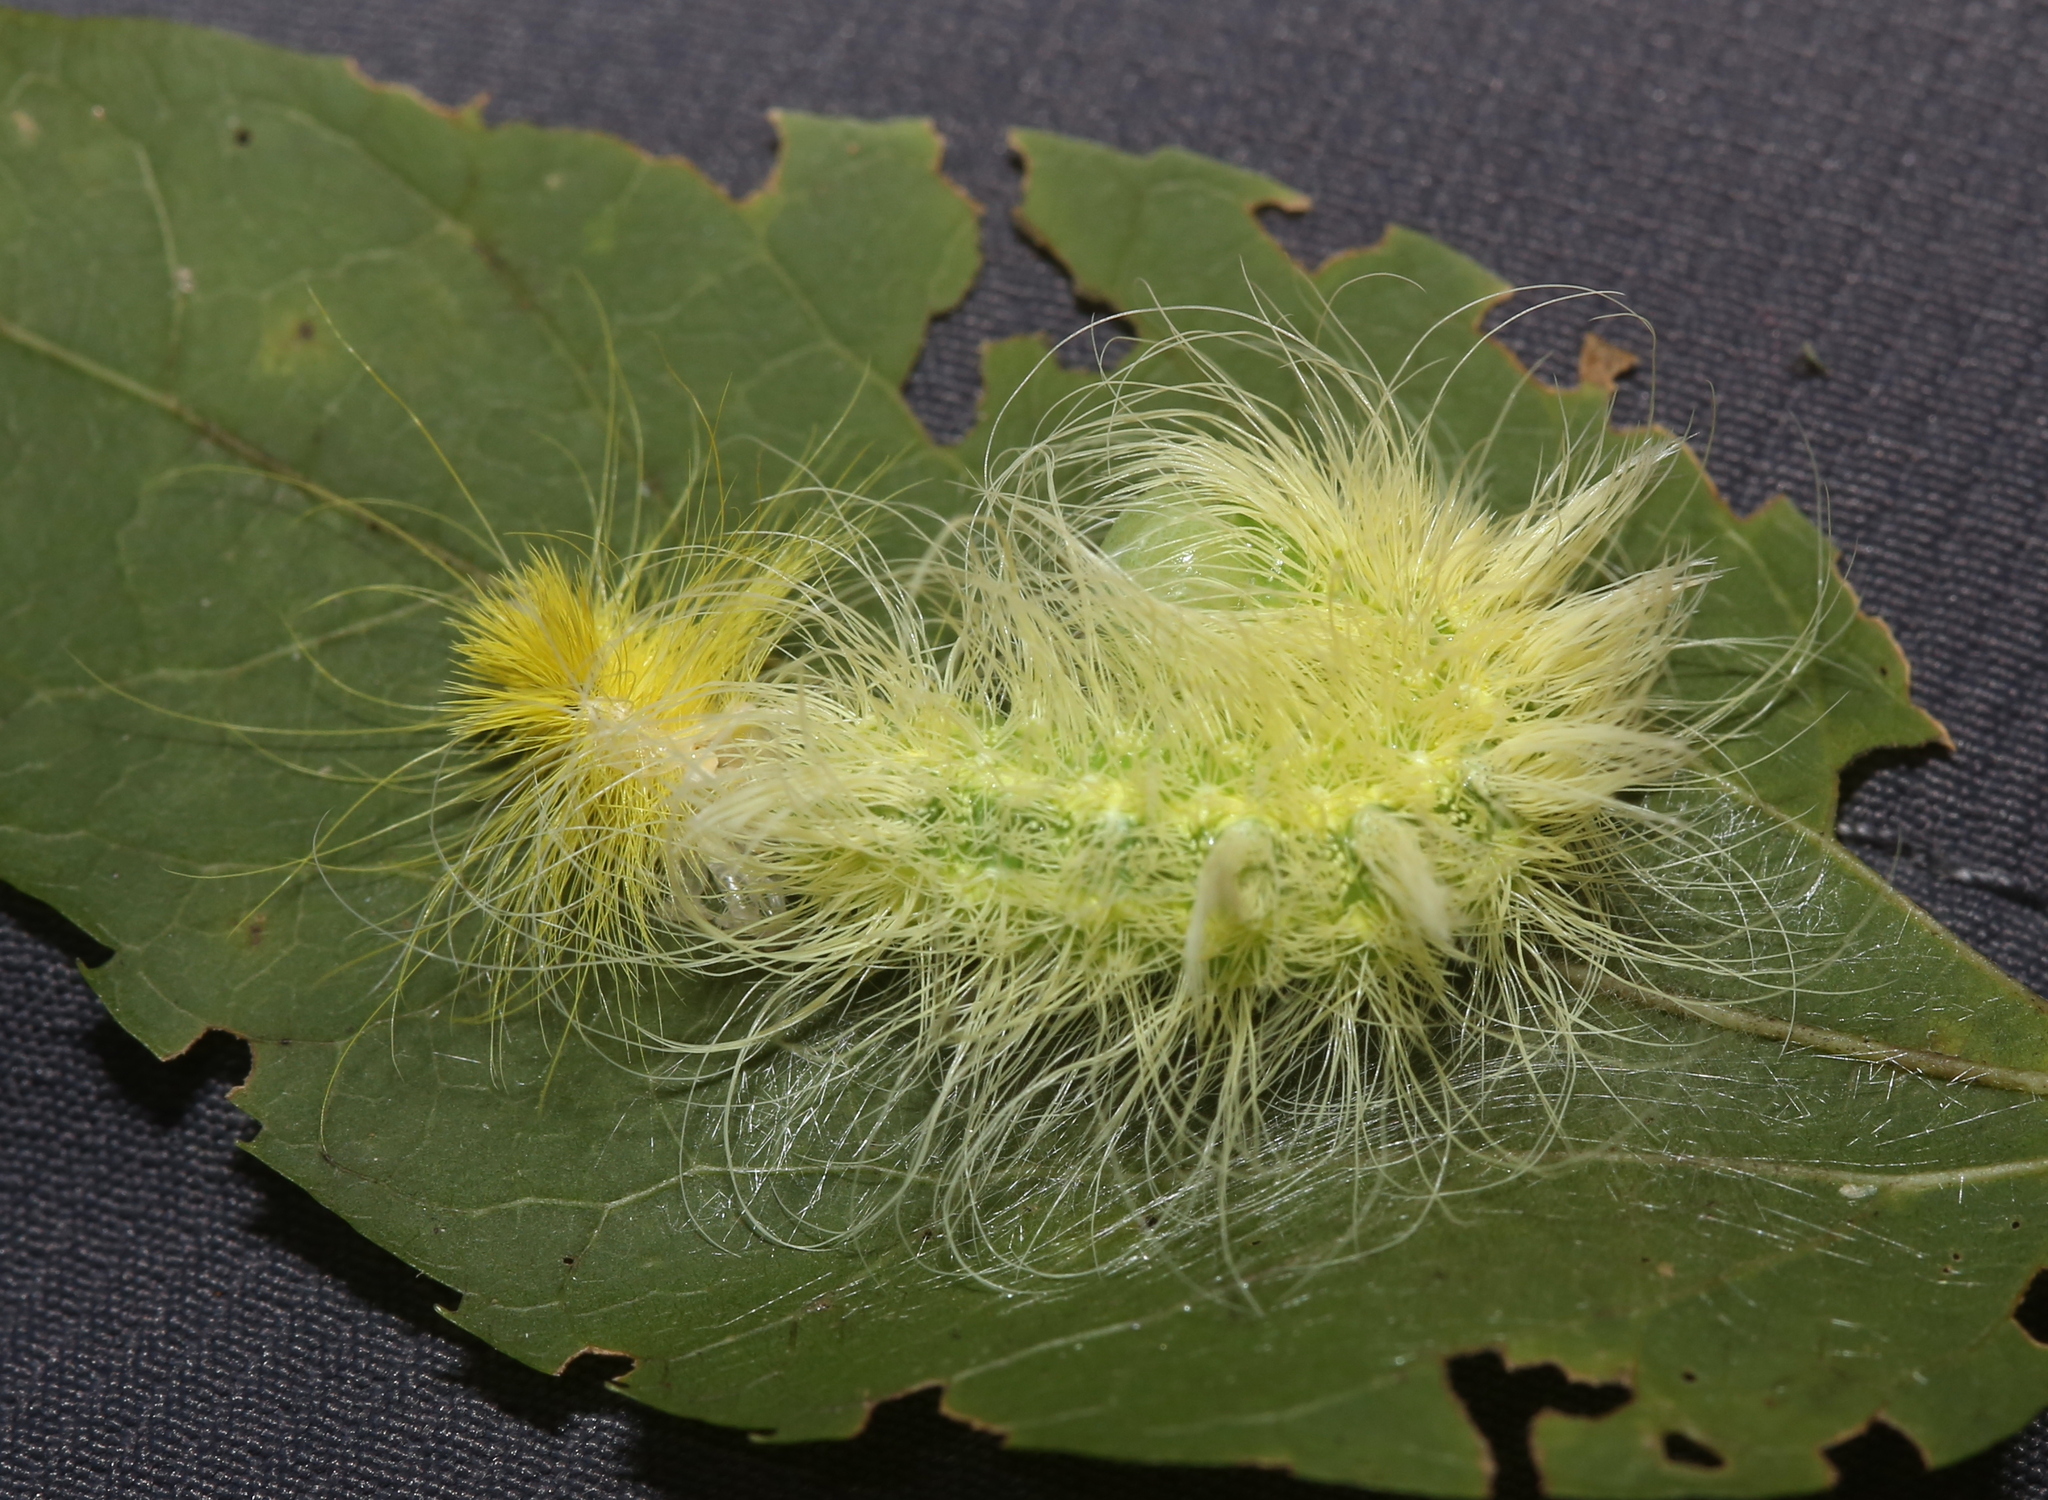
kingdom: Animalia
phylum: Arthropoda
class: Insecta
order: Lepidoptera
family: Noctuidae
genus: Acronicta
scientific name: Acronicta rubricoma
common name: Hackberry dagger
